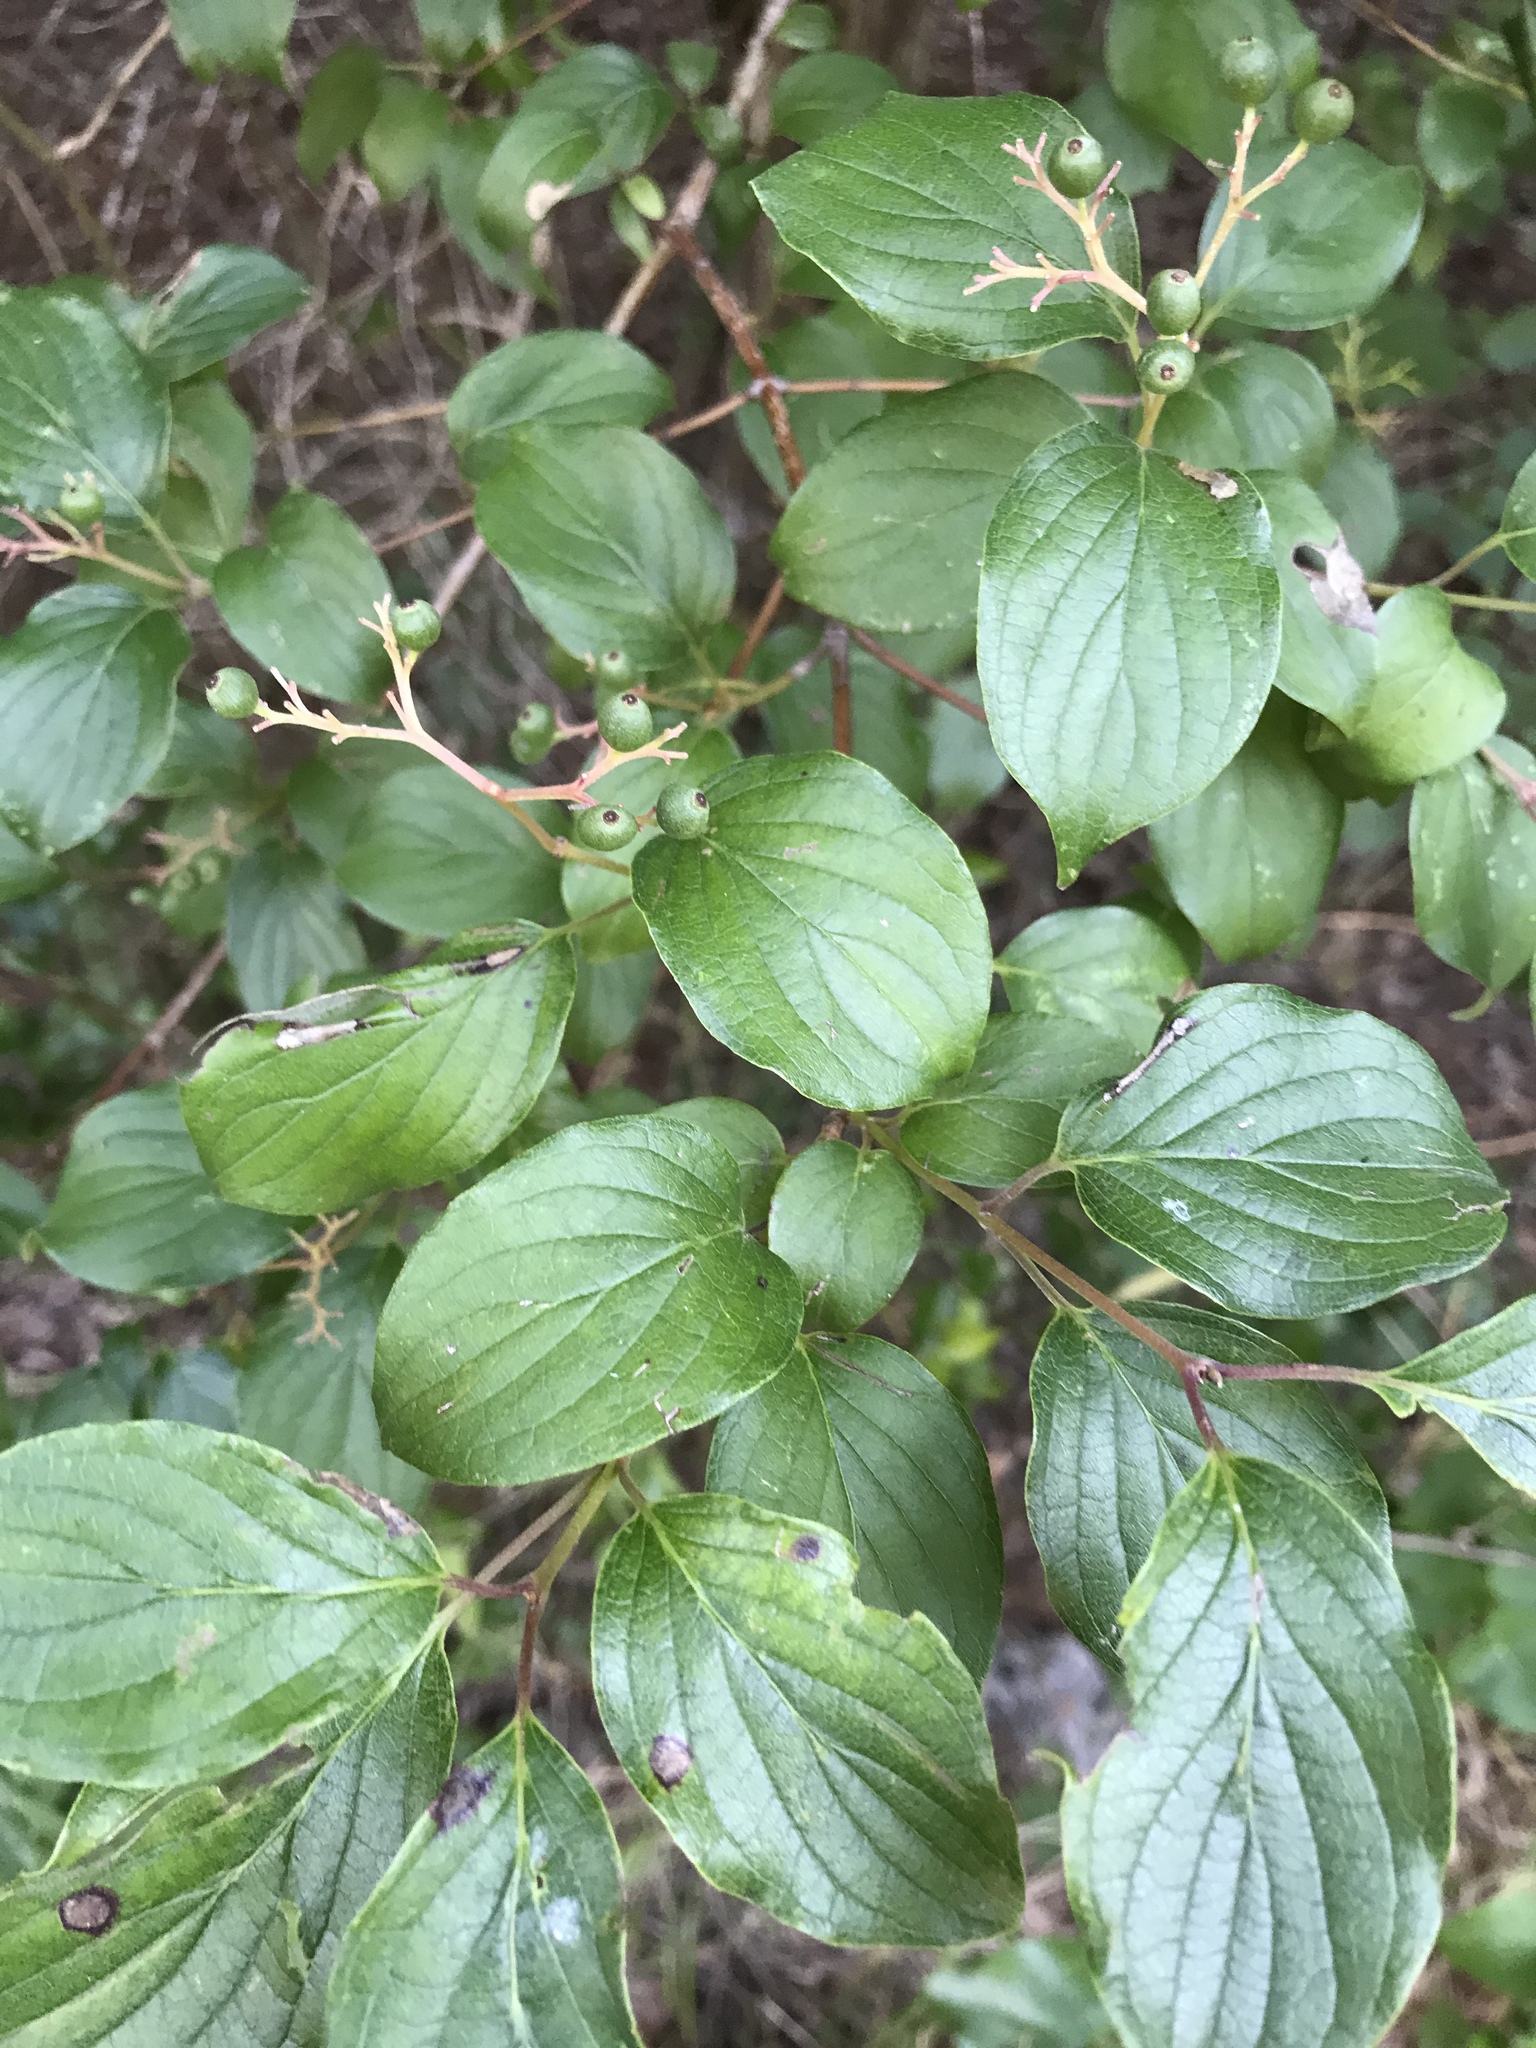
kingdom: Plantae
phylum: Tracheophyta
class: Magnoliopsida
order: Cornales
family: Cornaceae
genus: Cornus
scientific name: Cornus drummondii
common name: Rough-leaf dogwood
